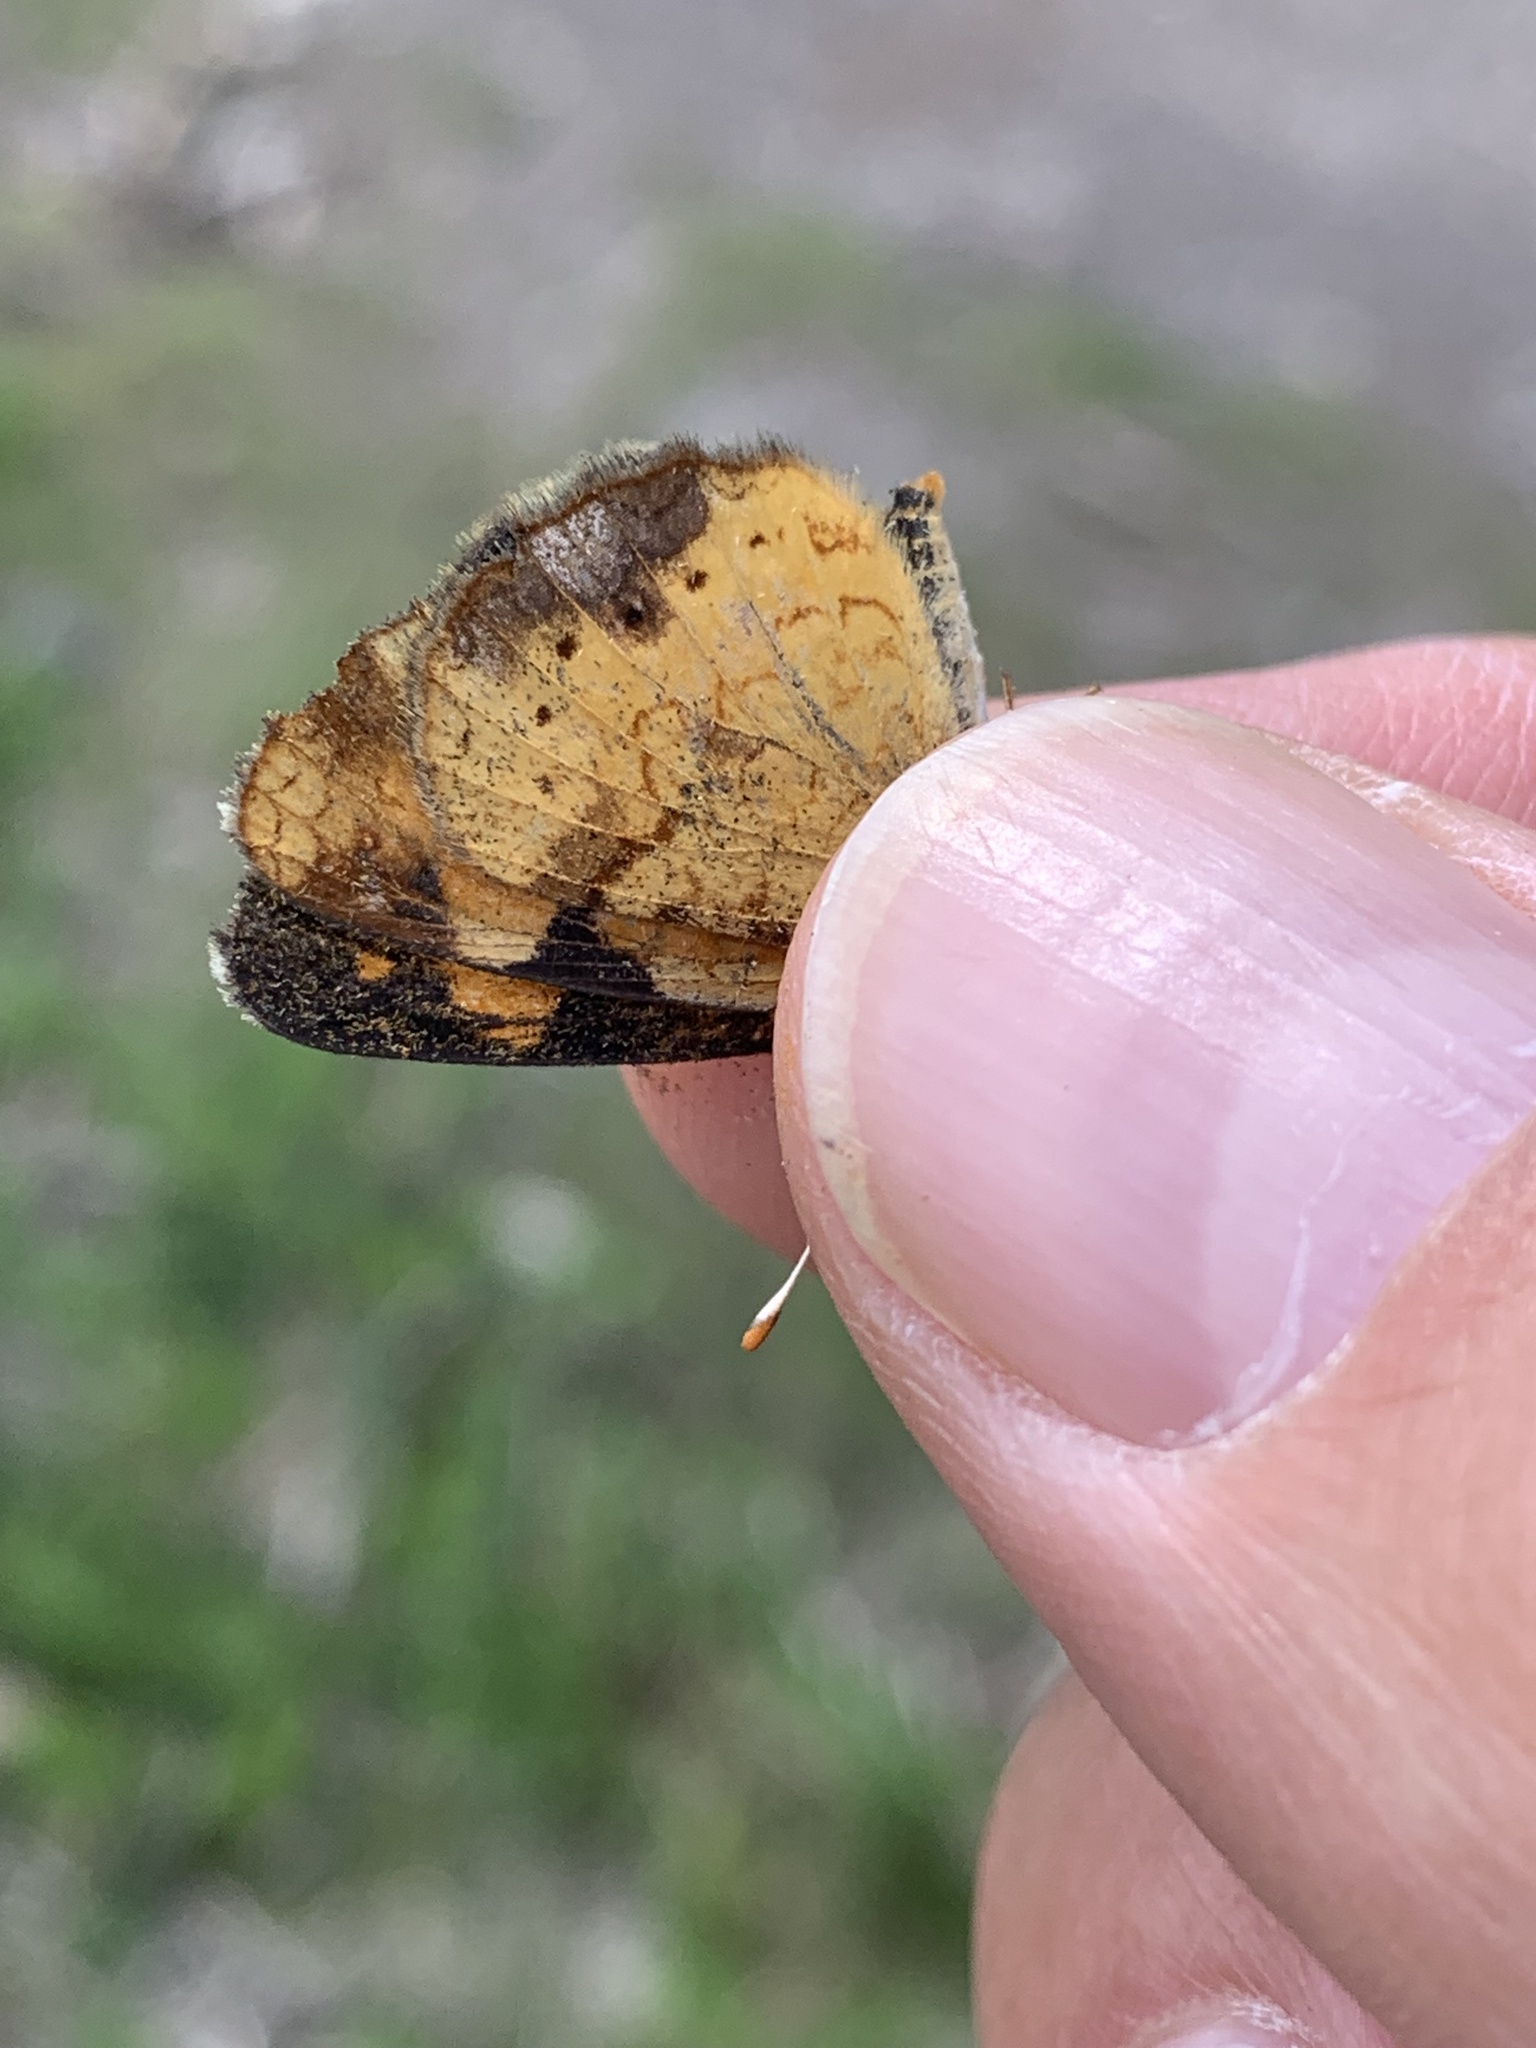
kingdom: Animalia
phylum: Arthropoda
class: Insecta
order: Lepidoptera
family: Nymphalidae
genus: Phyciodes
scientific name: Phyciodes tharos
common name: Pearl crescent
